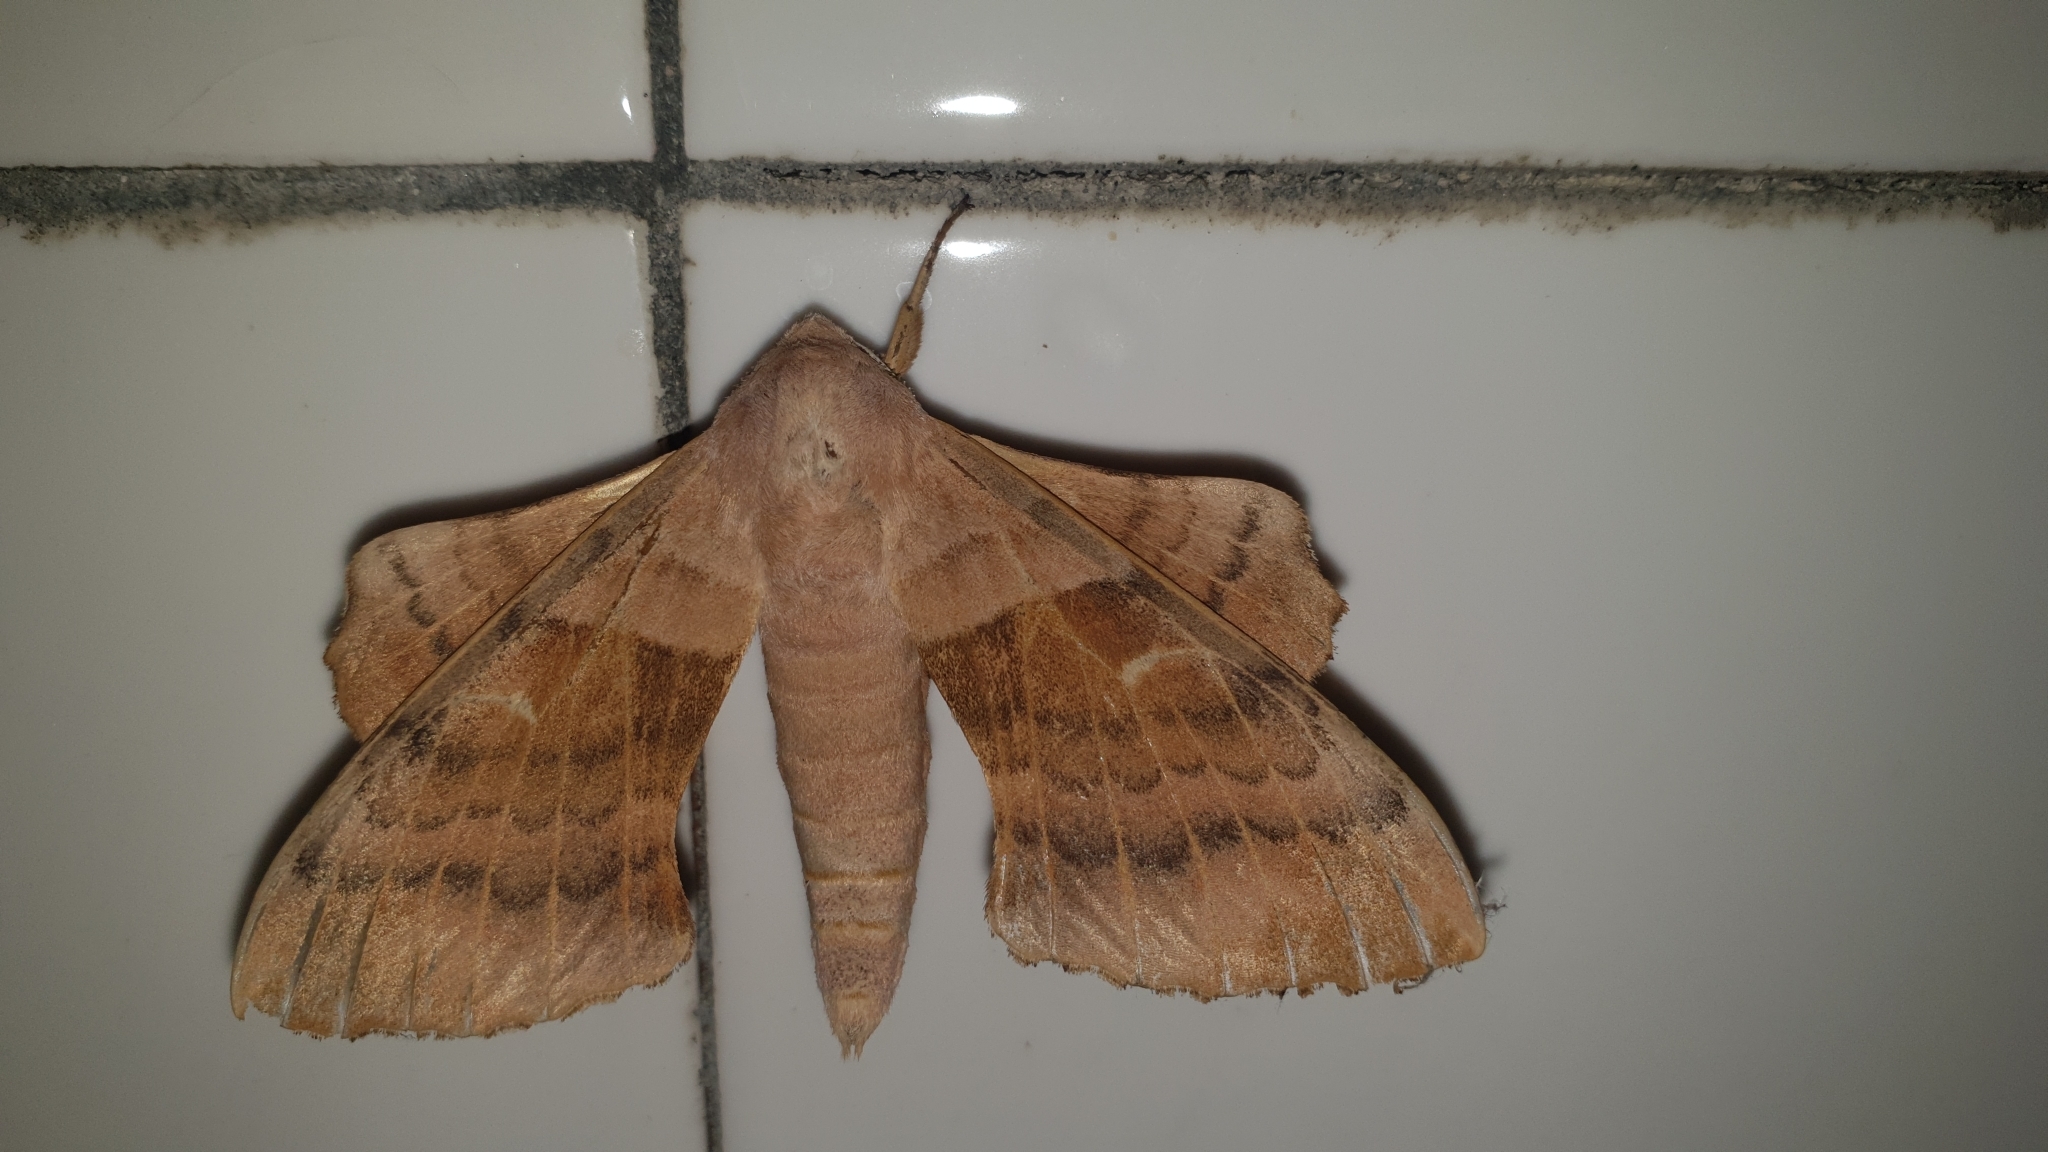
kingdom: Animalia
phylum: Arthropoda
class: Insecta
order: Lepidoptera
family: Sphingidae
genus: Laothoe
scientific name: Laothoe populeti
